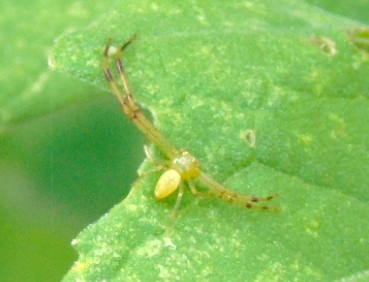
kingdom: Animalia
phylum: Arthropoda
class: Arachnida
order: Araneae
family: Thomisidae
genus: Misumessus
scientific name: Misumessus
